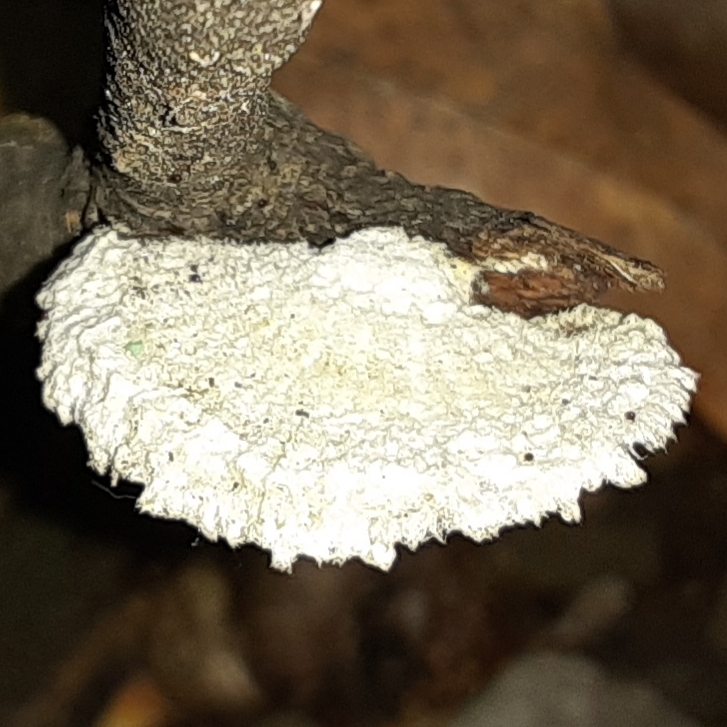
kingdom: Fungi
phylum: Basidiomycota
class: Agaricomycetes
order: Agaricales
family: Schizophyllaceae
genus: Schizophyllum
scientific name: Schizophyllum commune
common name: Common porecrust
